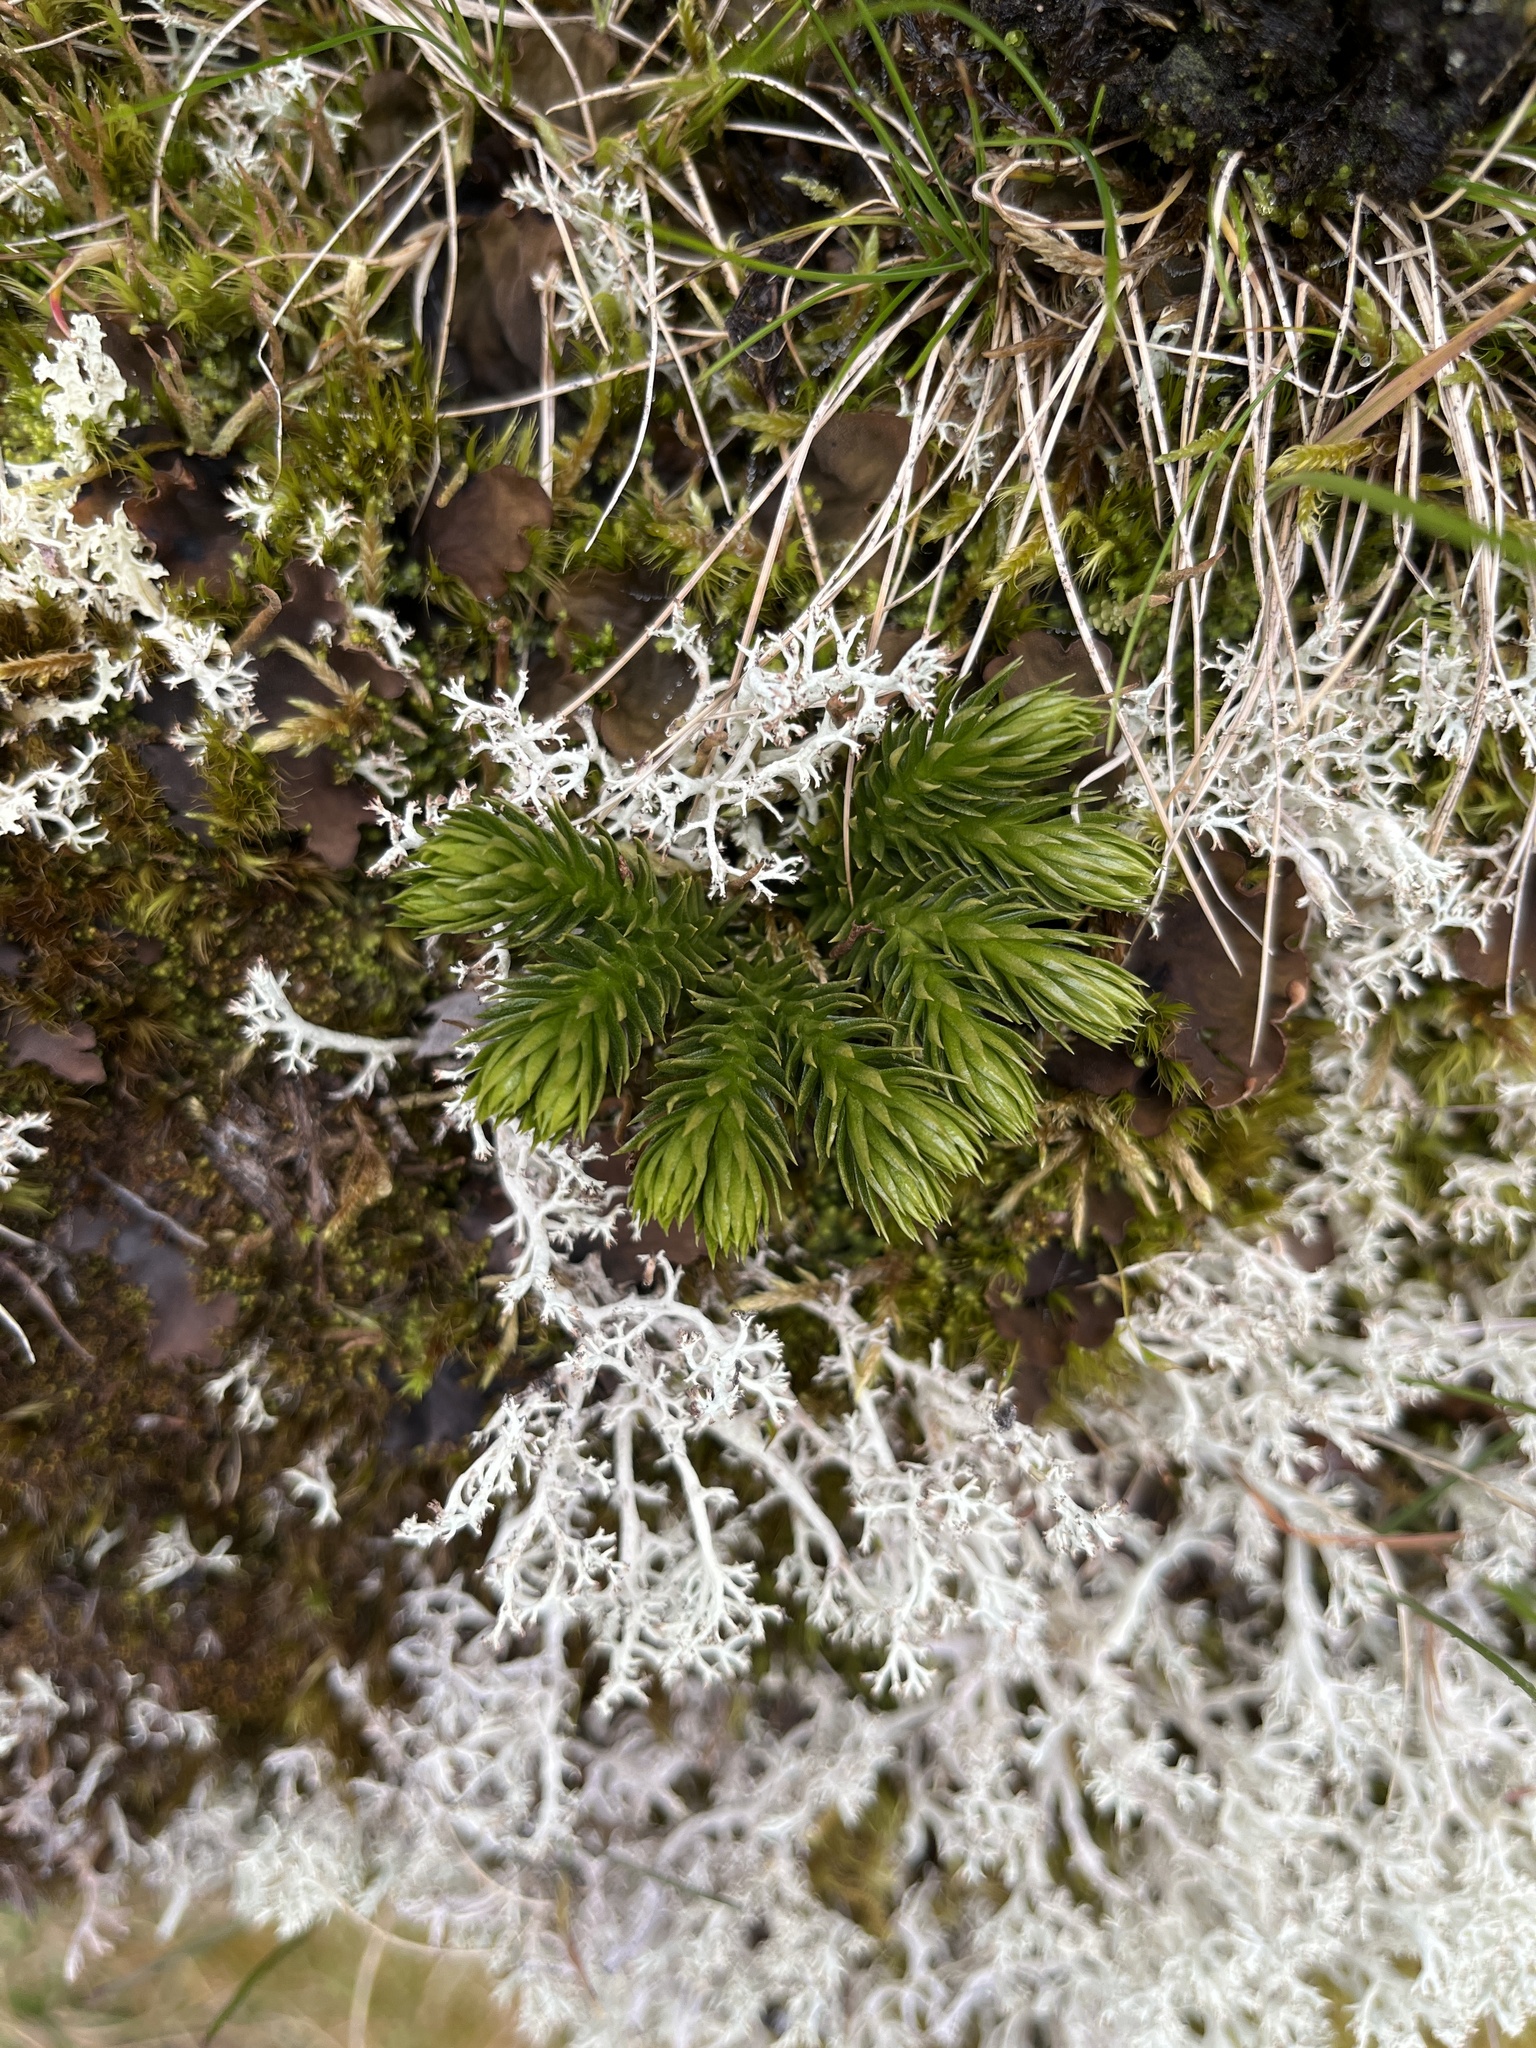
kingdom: Plantae
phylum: Tracheophyta
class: Lycopodiopsida
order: Lycopodiales
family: Lycopodiaceae
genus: Huperzia
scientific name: Huperzia selago
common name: Northern firmoss
